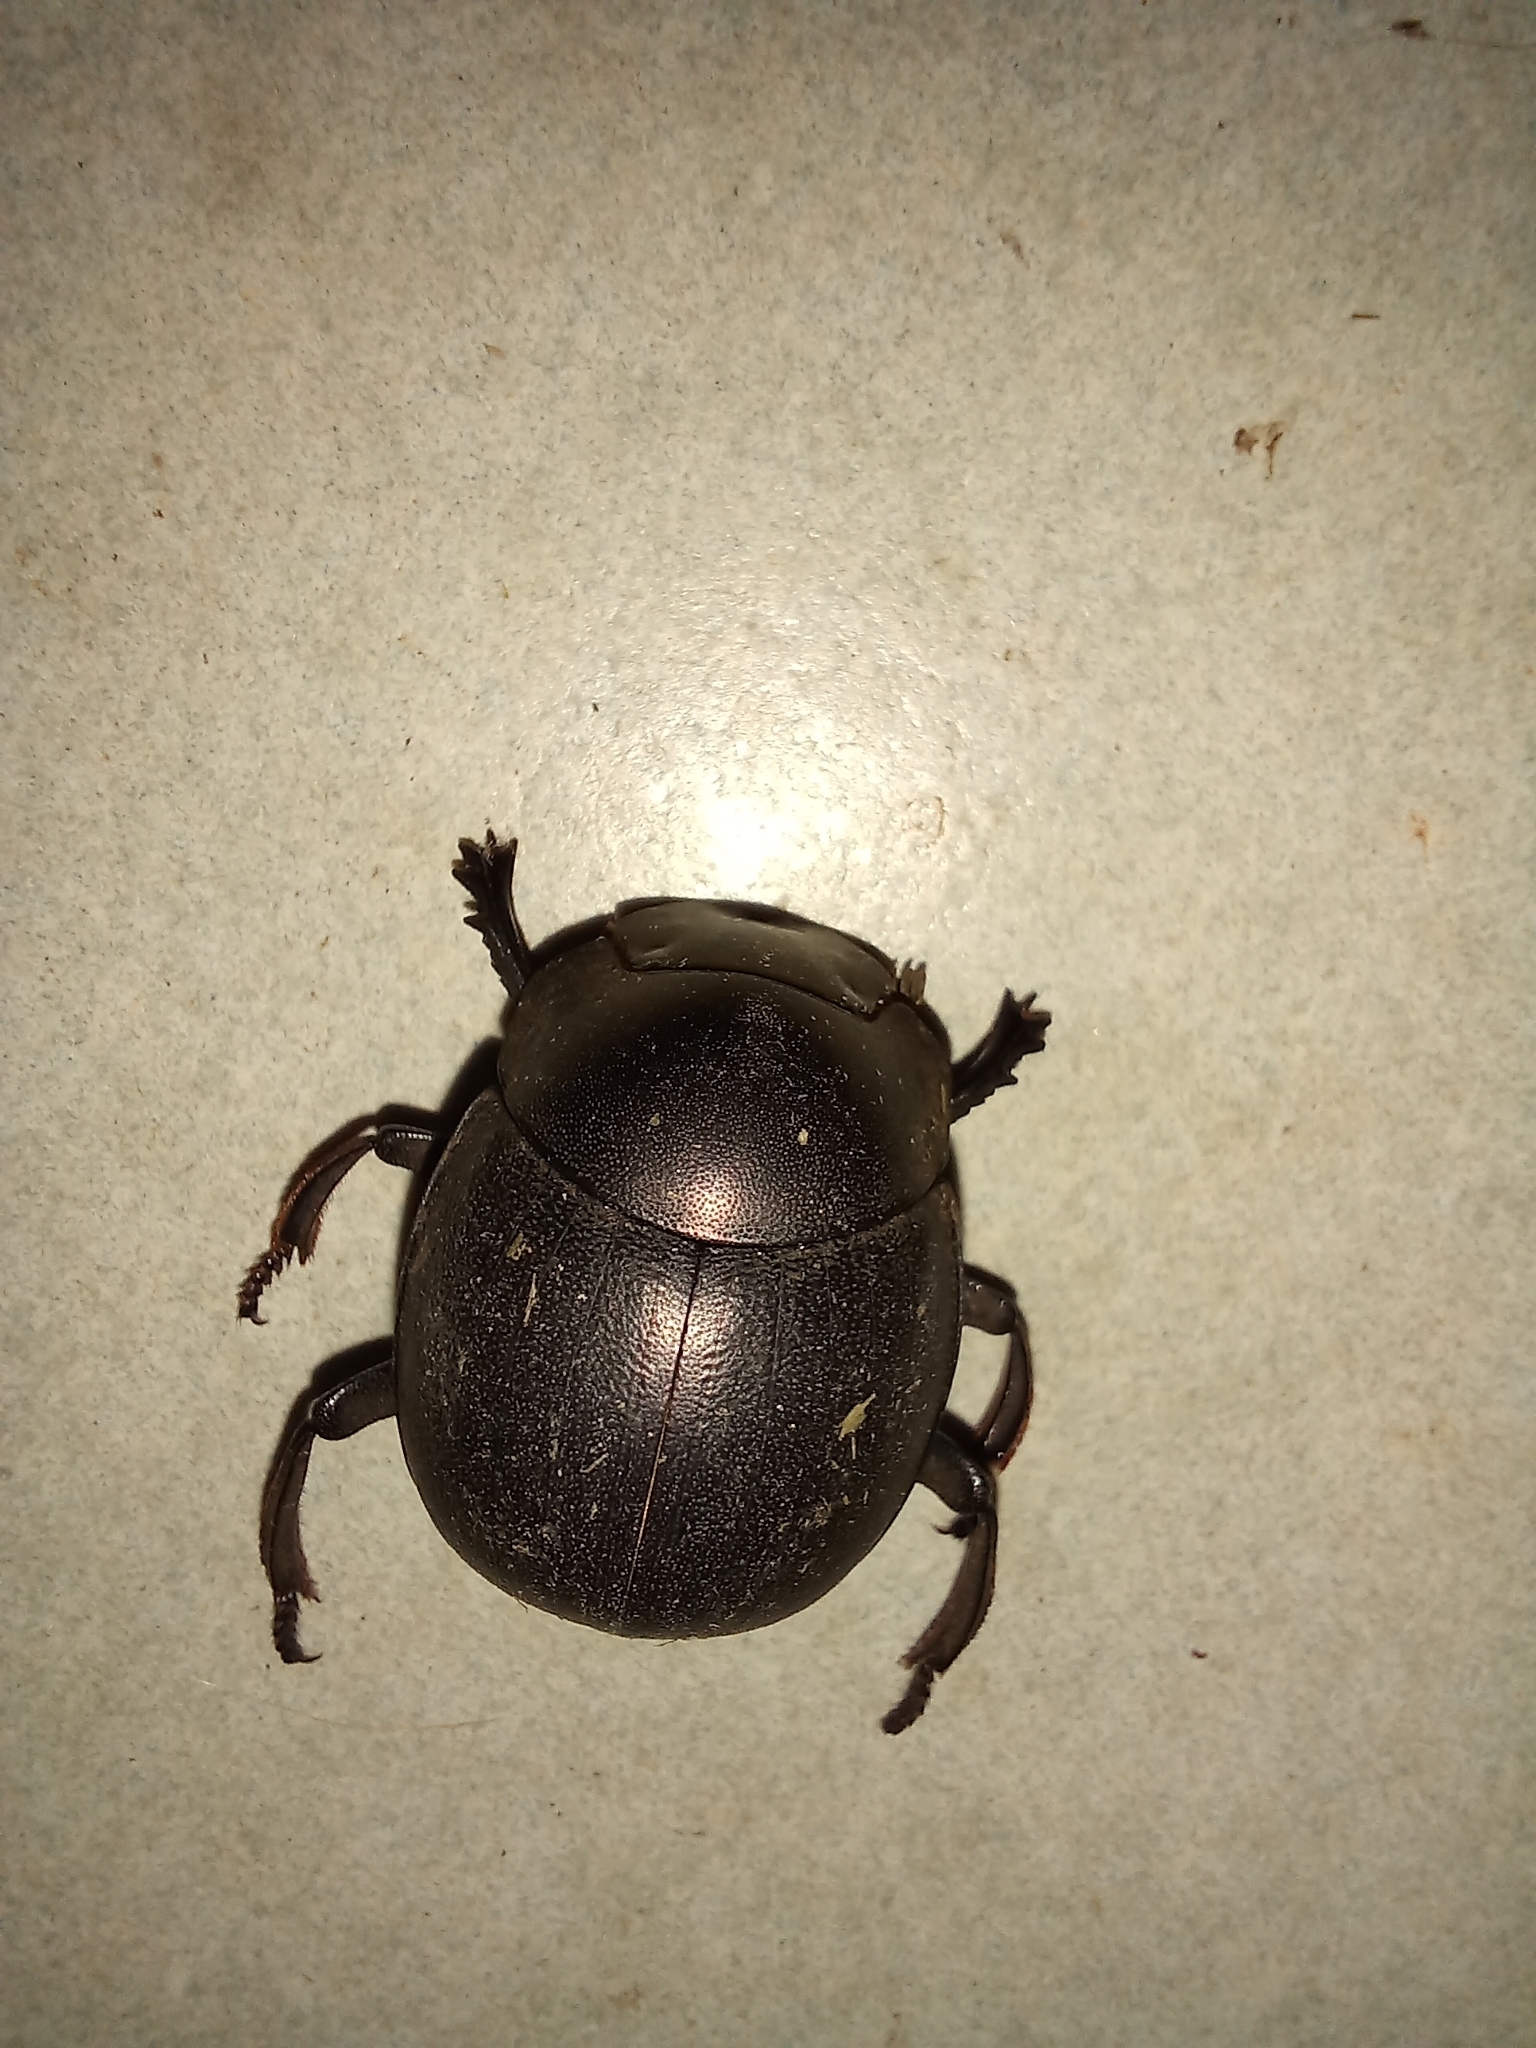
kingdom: Animalia
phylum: Arthropoda
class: Insecta
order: Coleoptera
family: Scarabaeidae
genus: Chalconotus
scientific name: Chalconotus convexus
